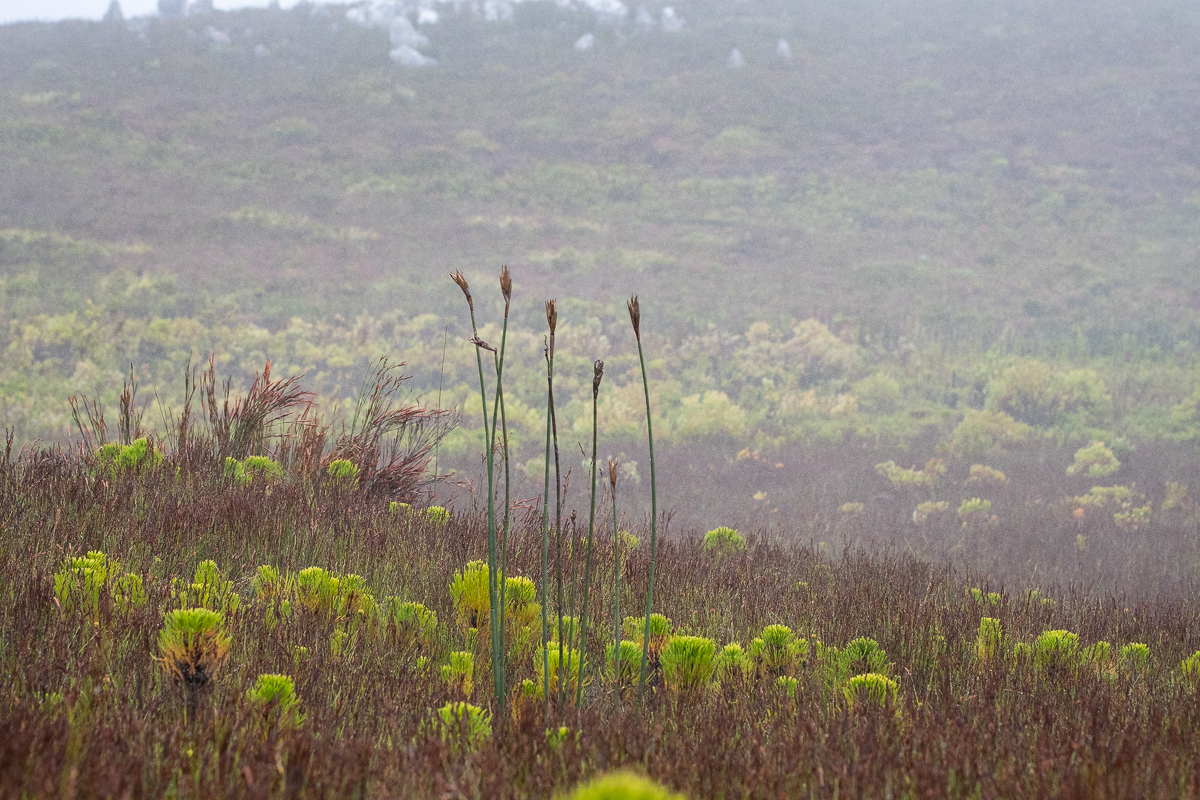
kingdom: Plantae
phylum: Tracheophyta
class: Liliopsida
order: Poales
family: Restionaceae
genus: Elegia
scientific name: Elegia mucronata
